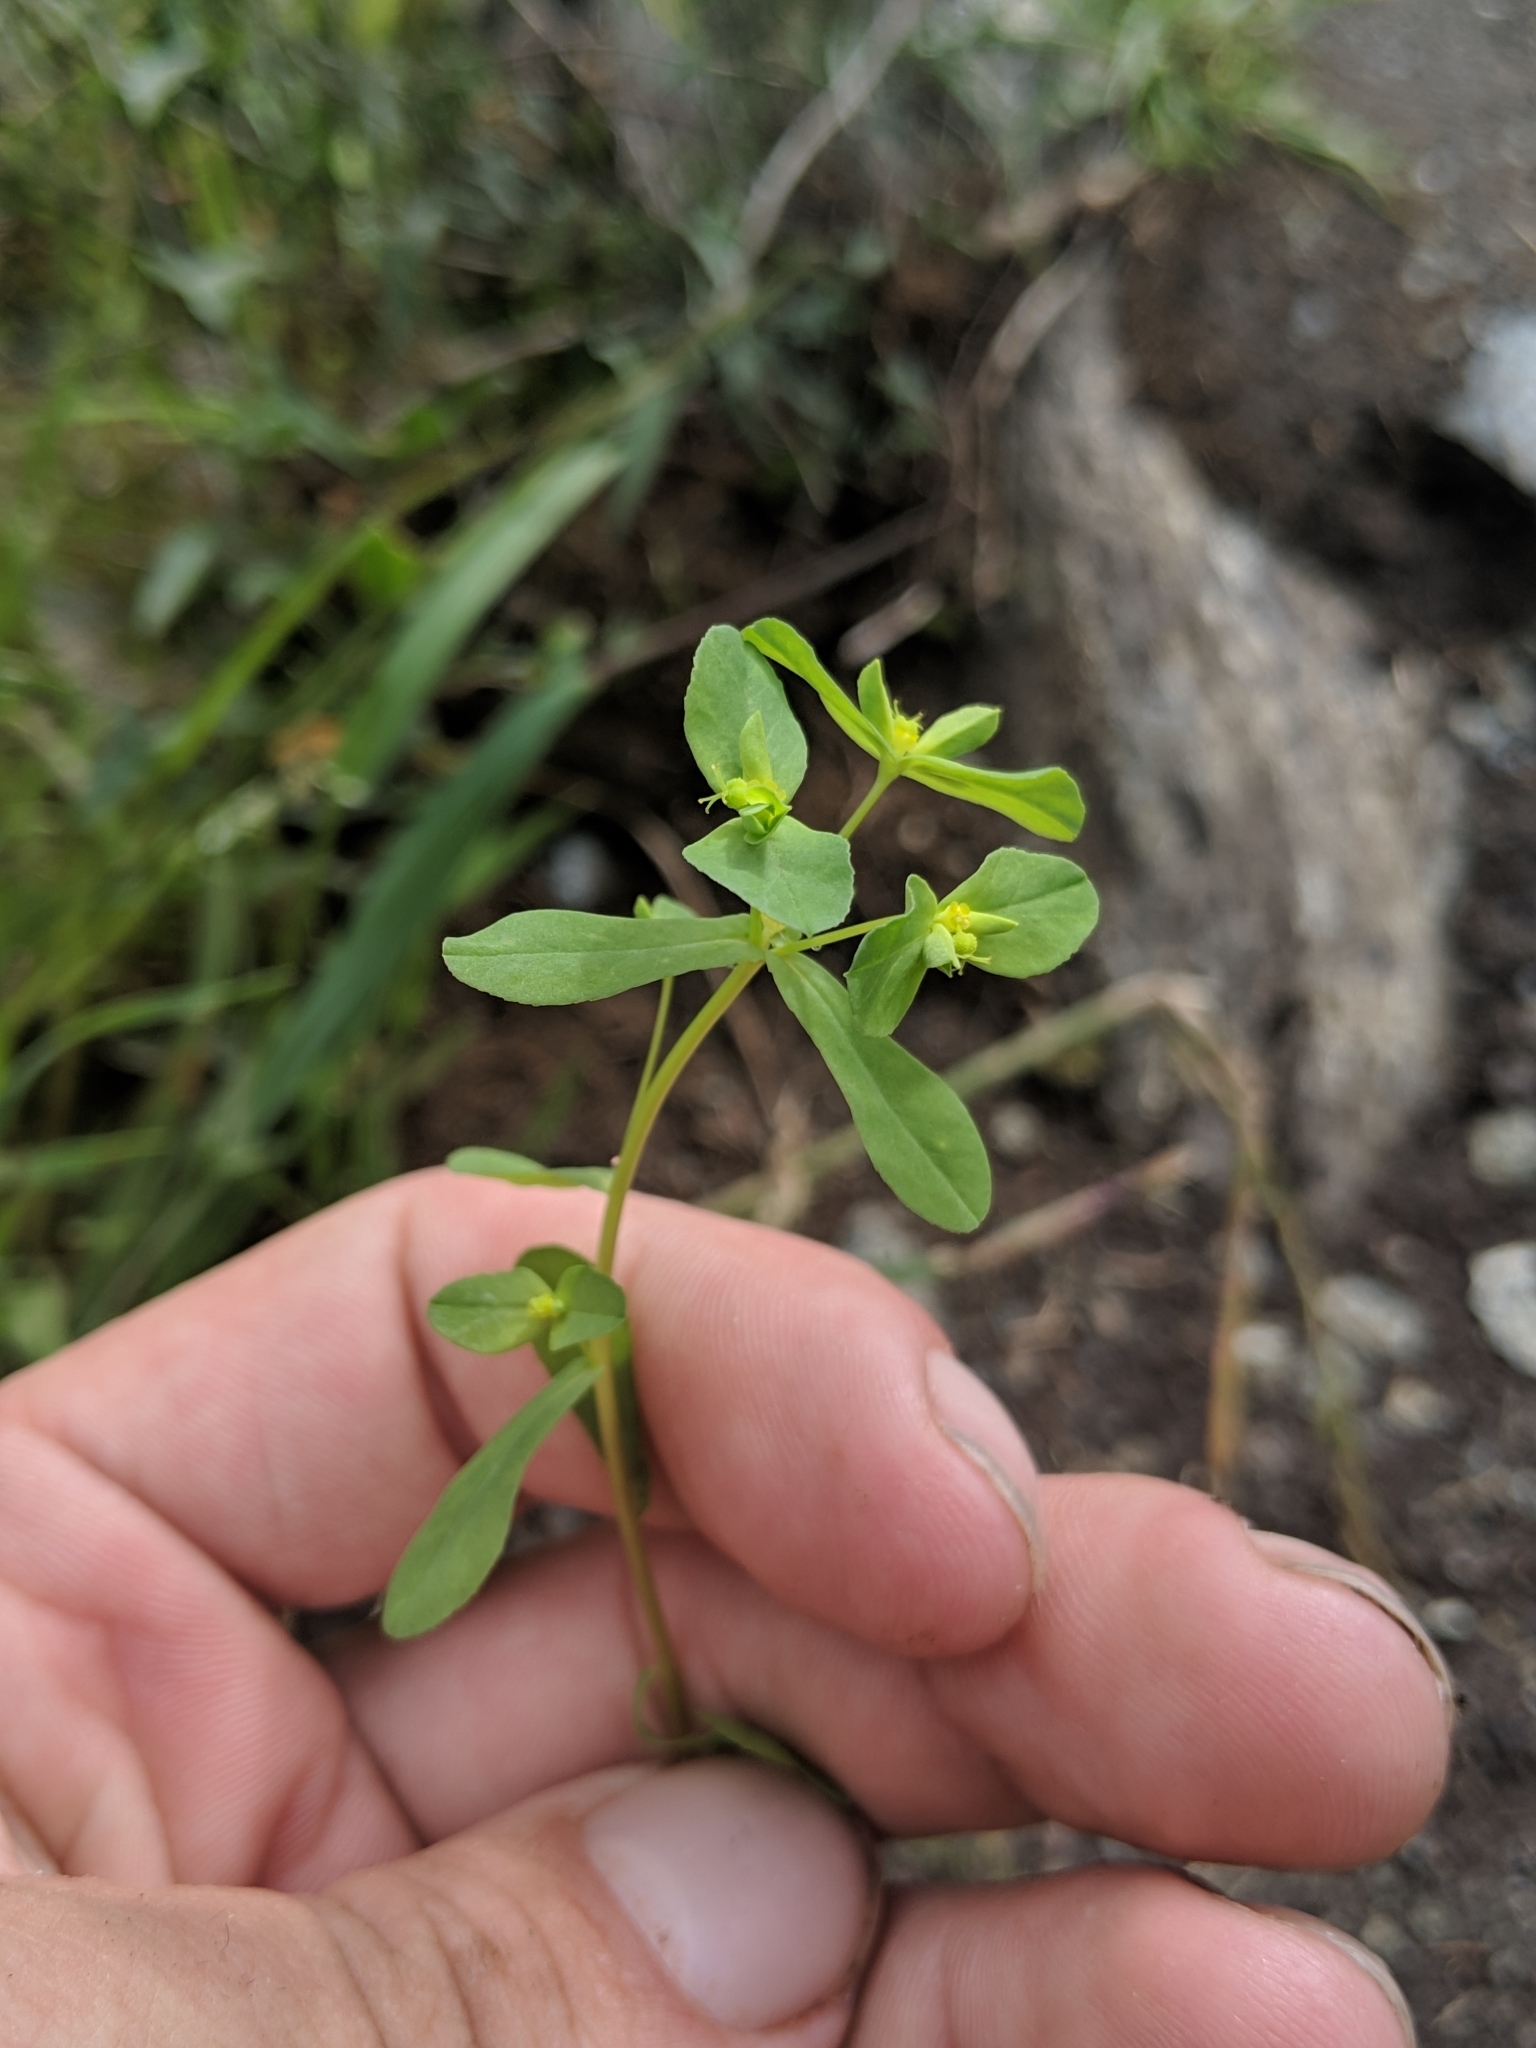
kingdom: Plantae
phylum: Tracheophyta
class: Magnoliopsida
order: Malpighiales
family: Euphorbiaceae
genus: Euphorbia
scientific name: Euphorbia spathulata
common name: Blunt spurge
